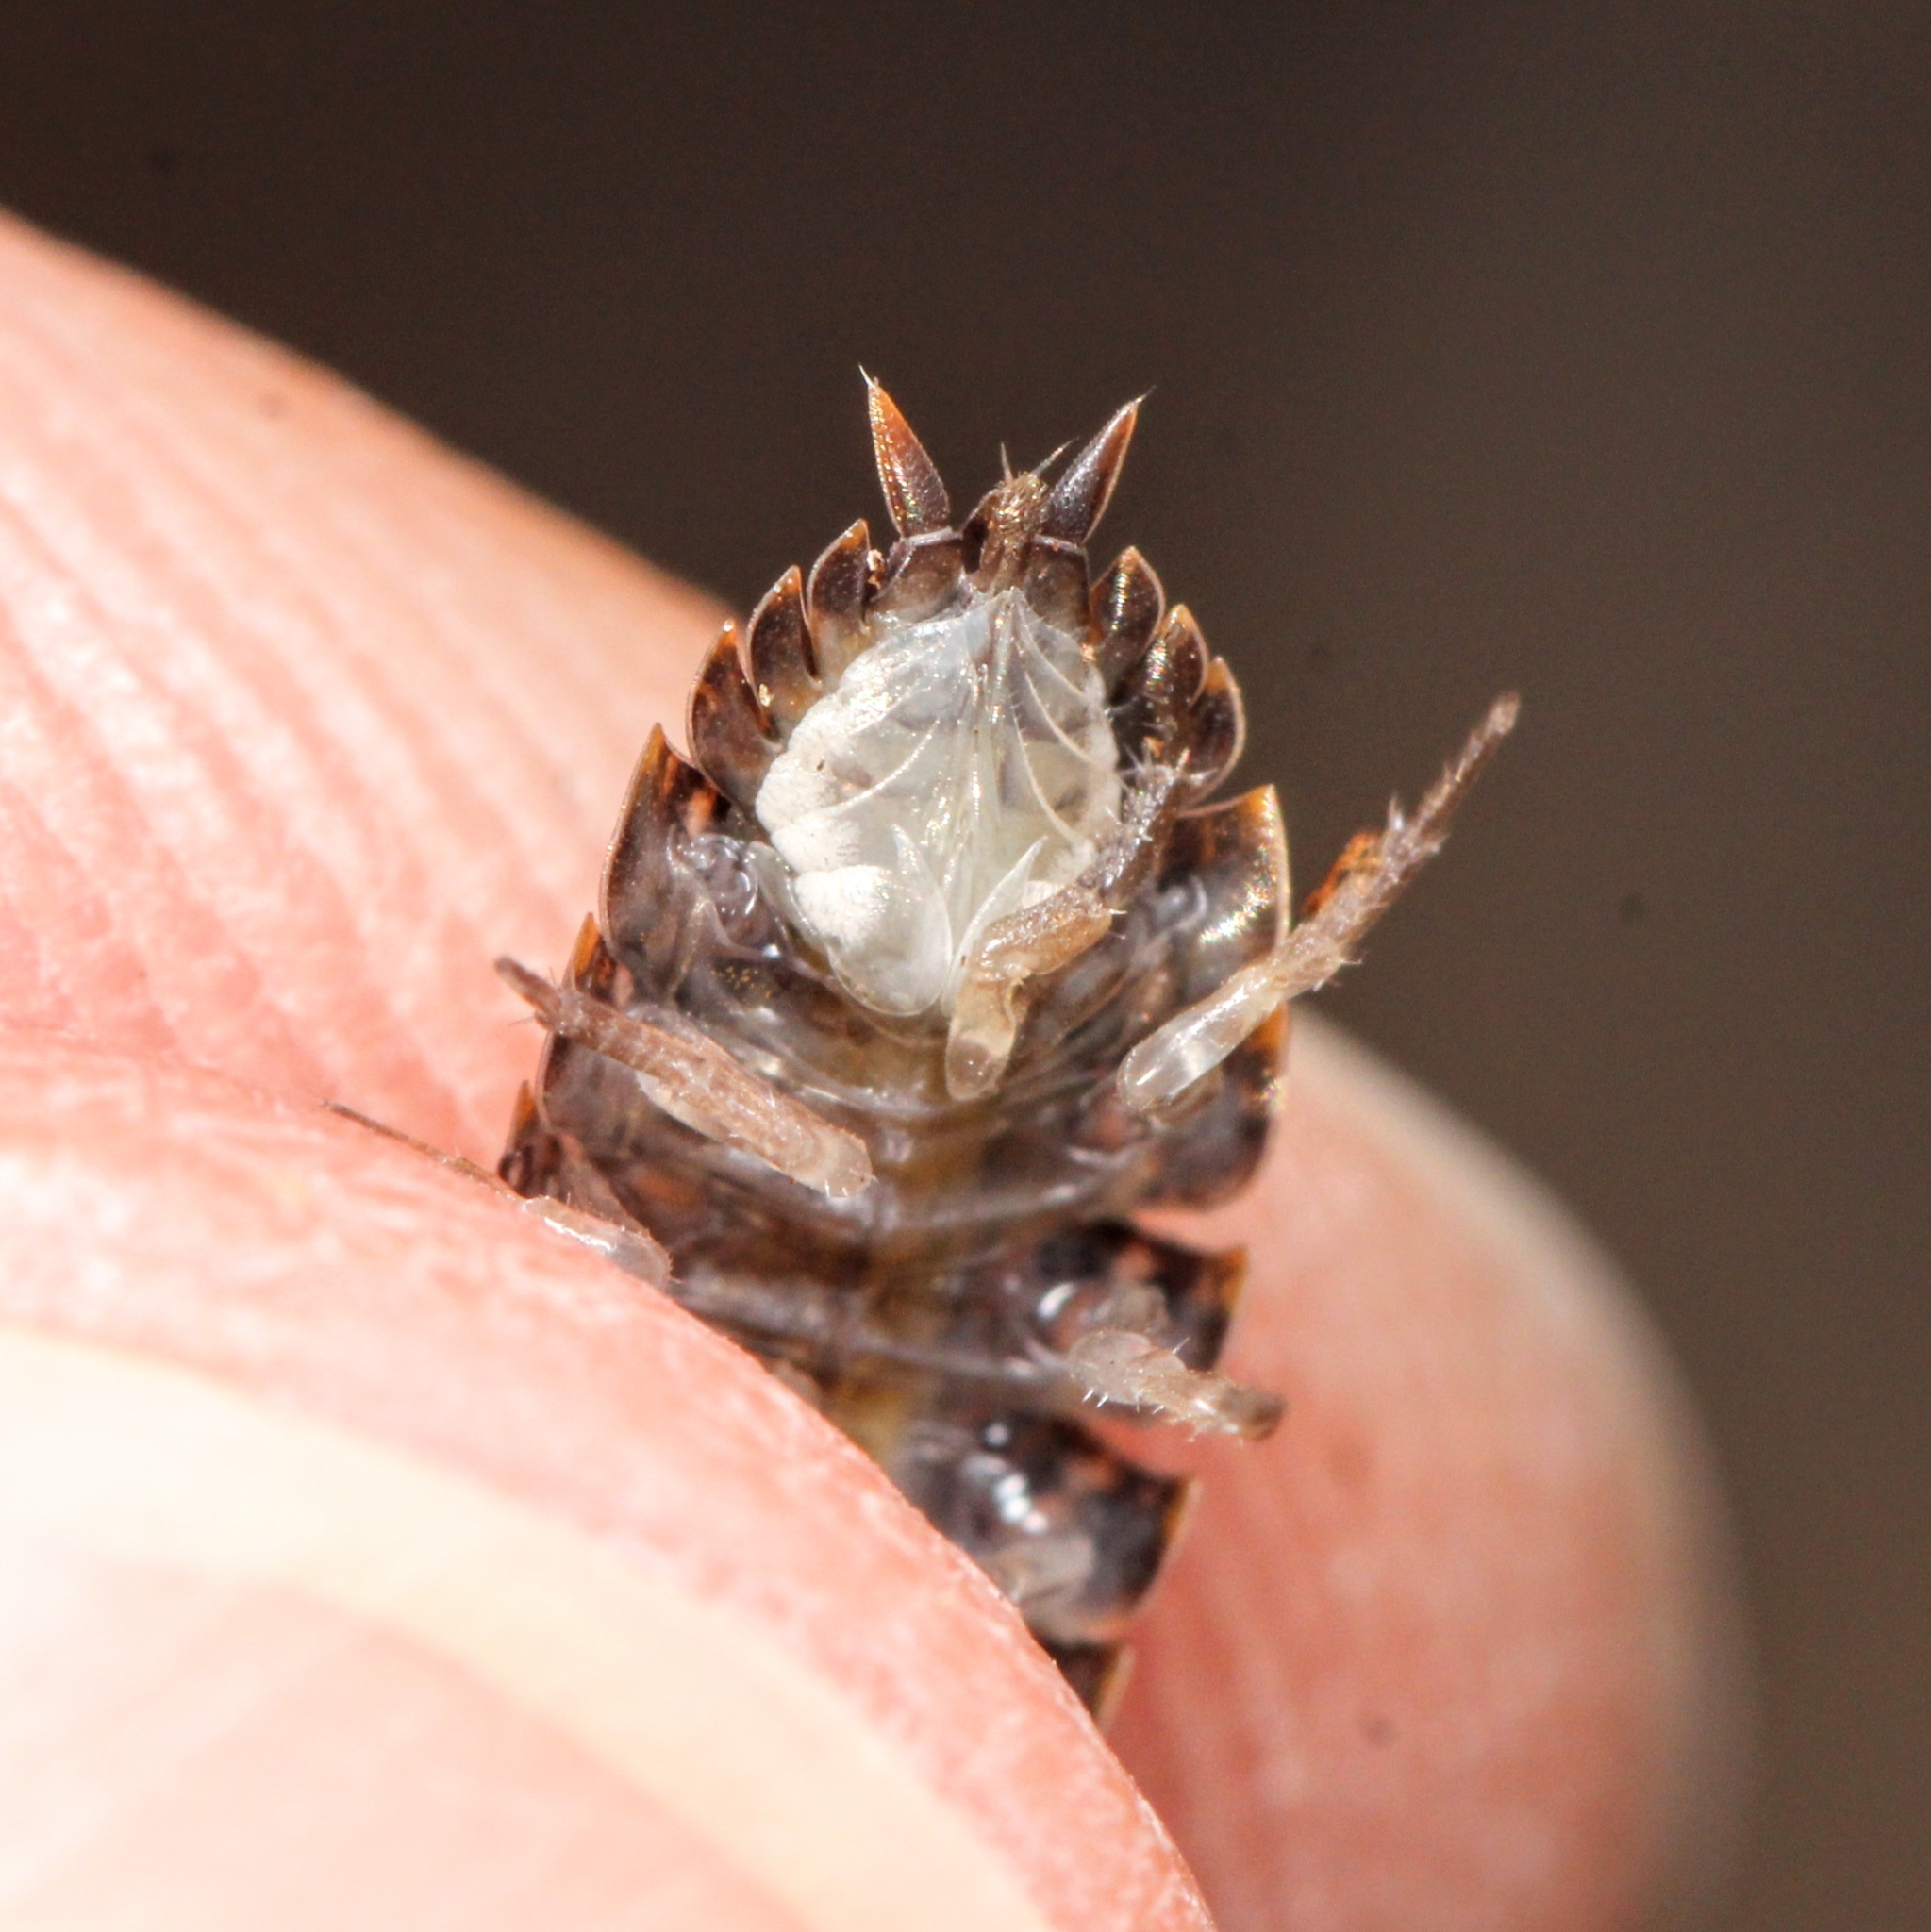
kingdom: Animalia
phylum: Arthropoda
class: Malacostraca
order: Isopoda
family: Trachelipodidae
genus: Trachelipus
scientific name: Trachelipus rathkii
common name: Isopod
